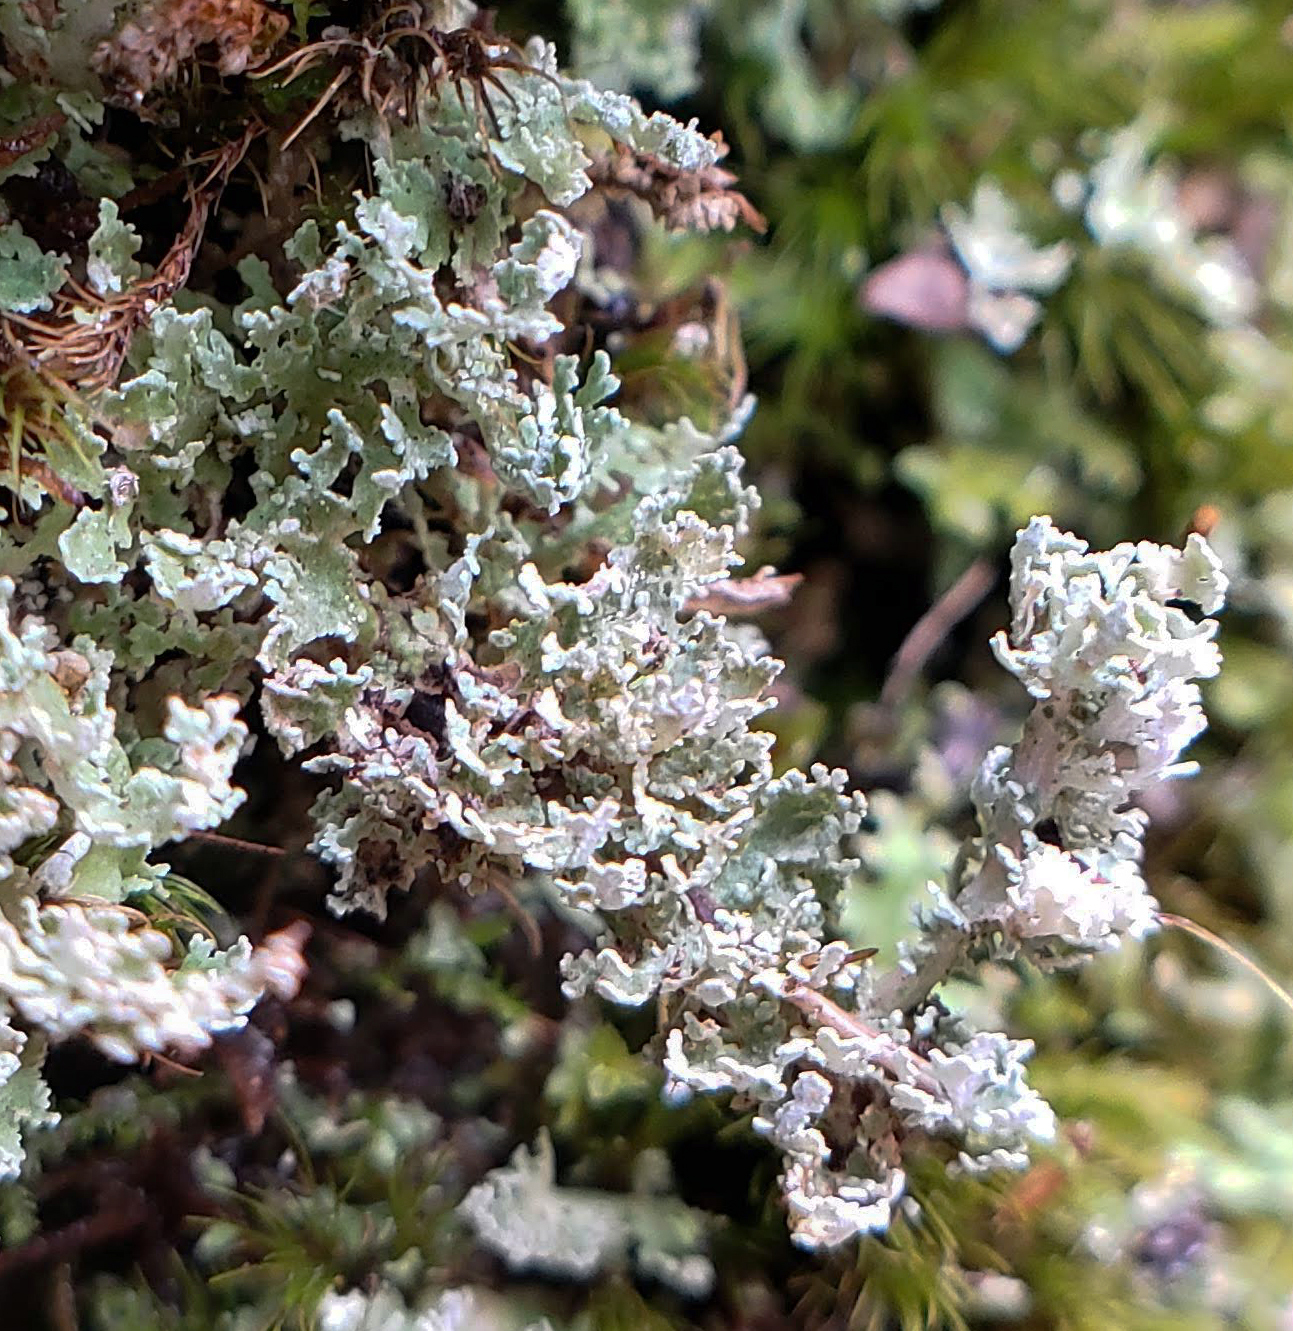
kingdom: Fungi
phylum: Ascomycota
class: Lecanoromycetes
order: Lecanorales
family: Cladoniaceae
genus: Cladonia
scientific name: Cladonia squamosa
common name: Dragon horn
